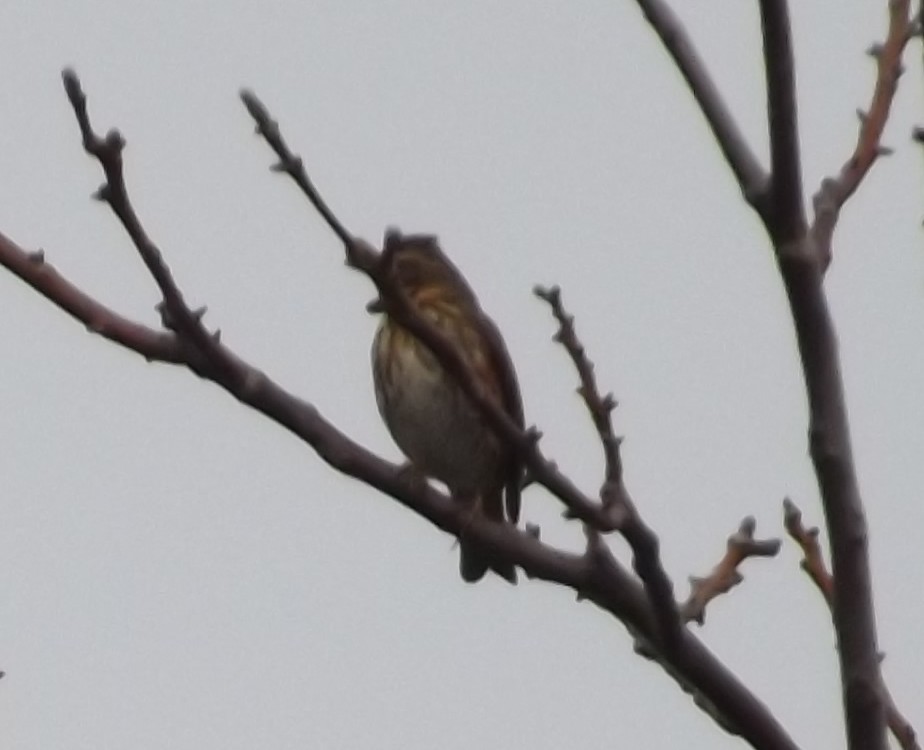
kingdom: Animalia
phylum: Chordata
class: Aves
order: Passeriformes
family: Turdidae
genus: Turdus
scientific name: Turdus iliacus
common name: Redwing
